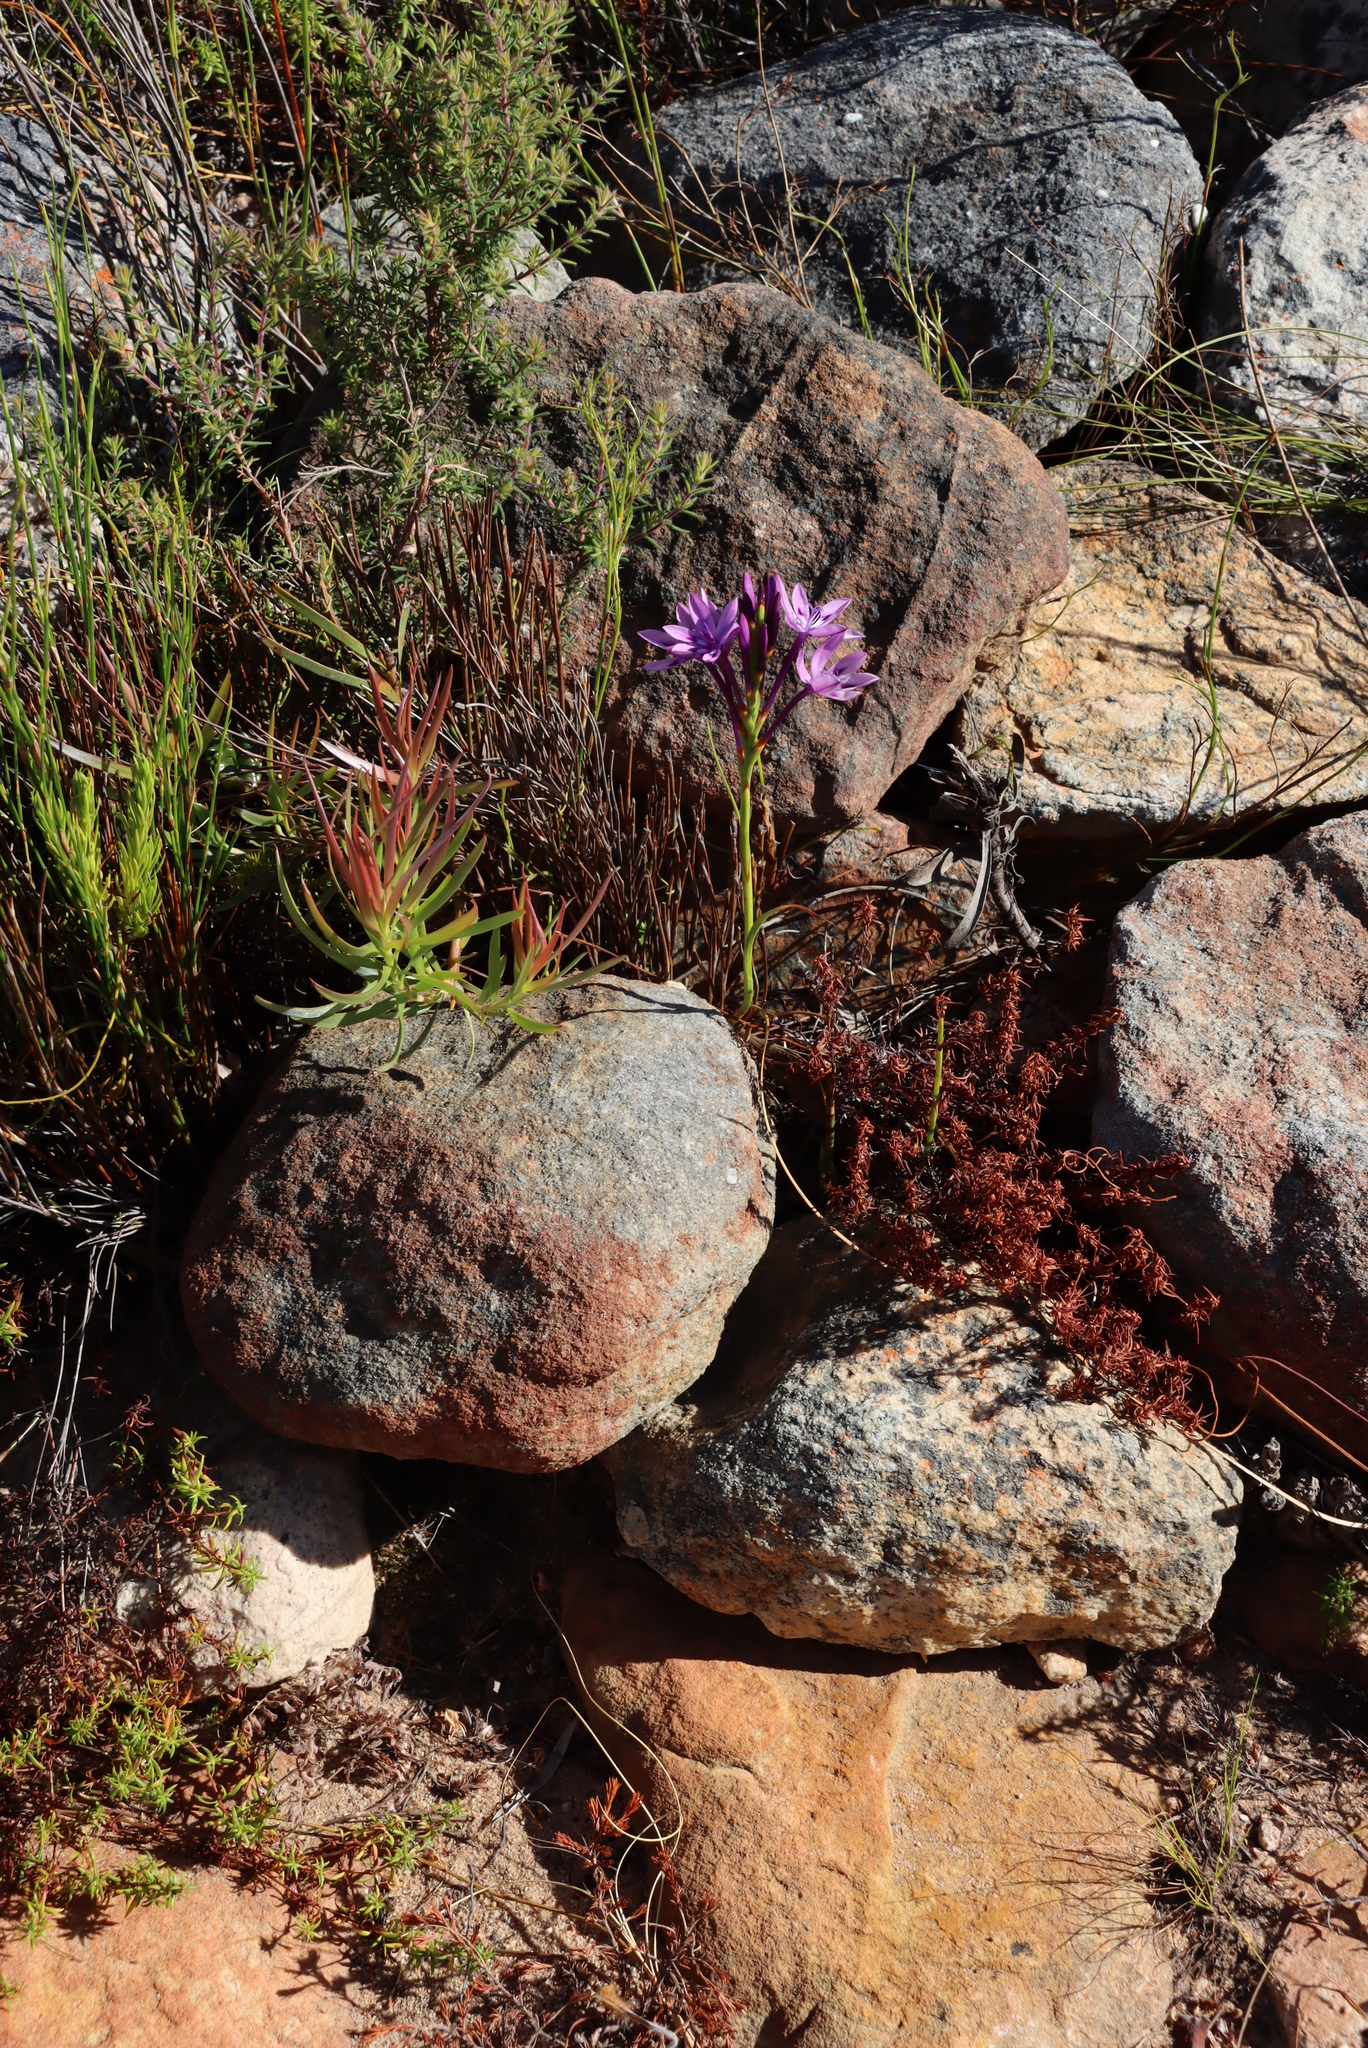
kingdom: Plantae
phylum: Tracheophyta
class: Liliopsida
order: Asparagales
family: Iridaceae
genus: Thereianthus
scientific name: Thereianthus spicatus
